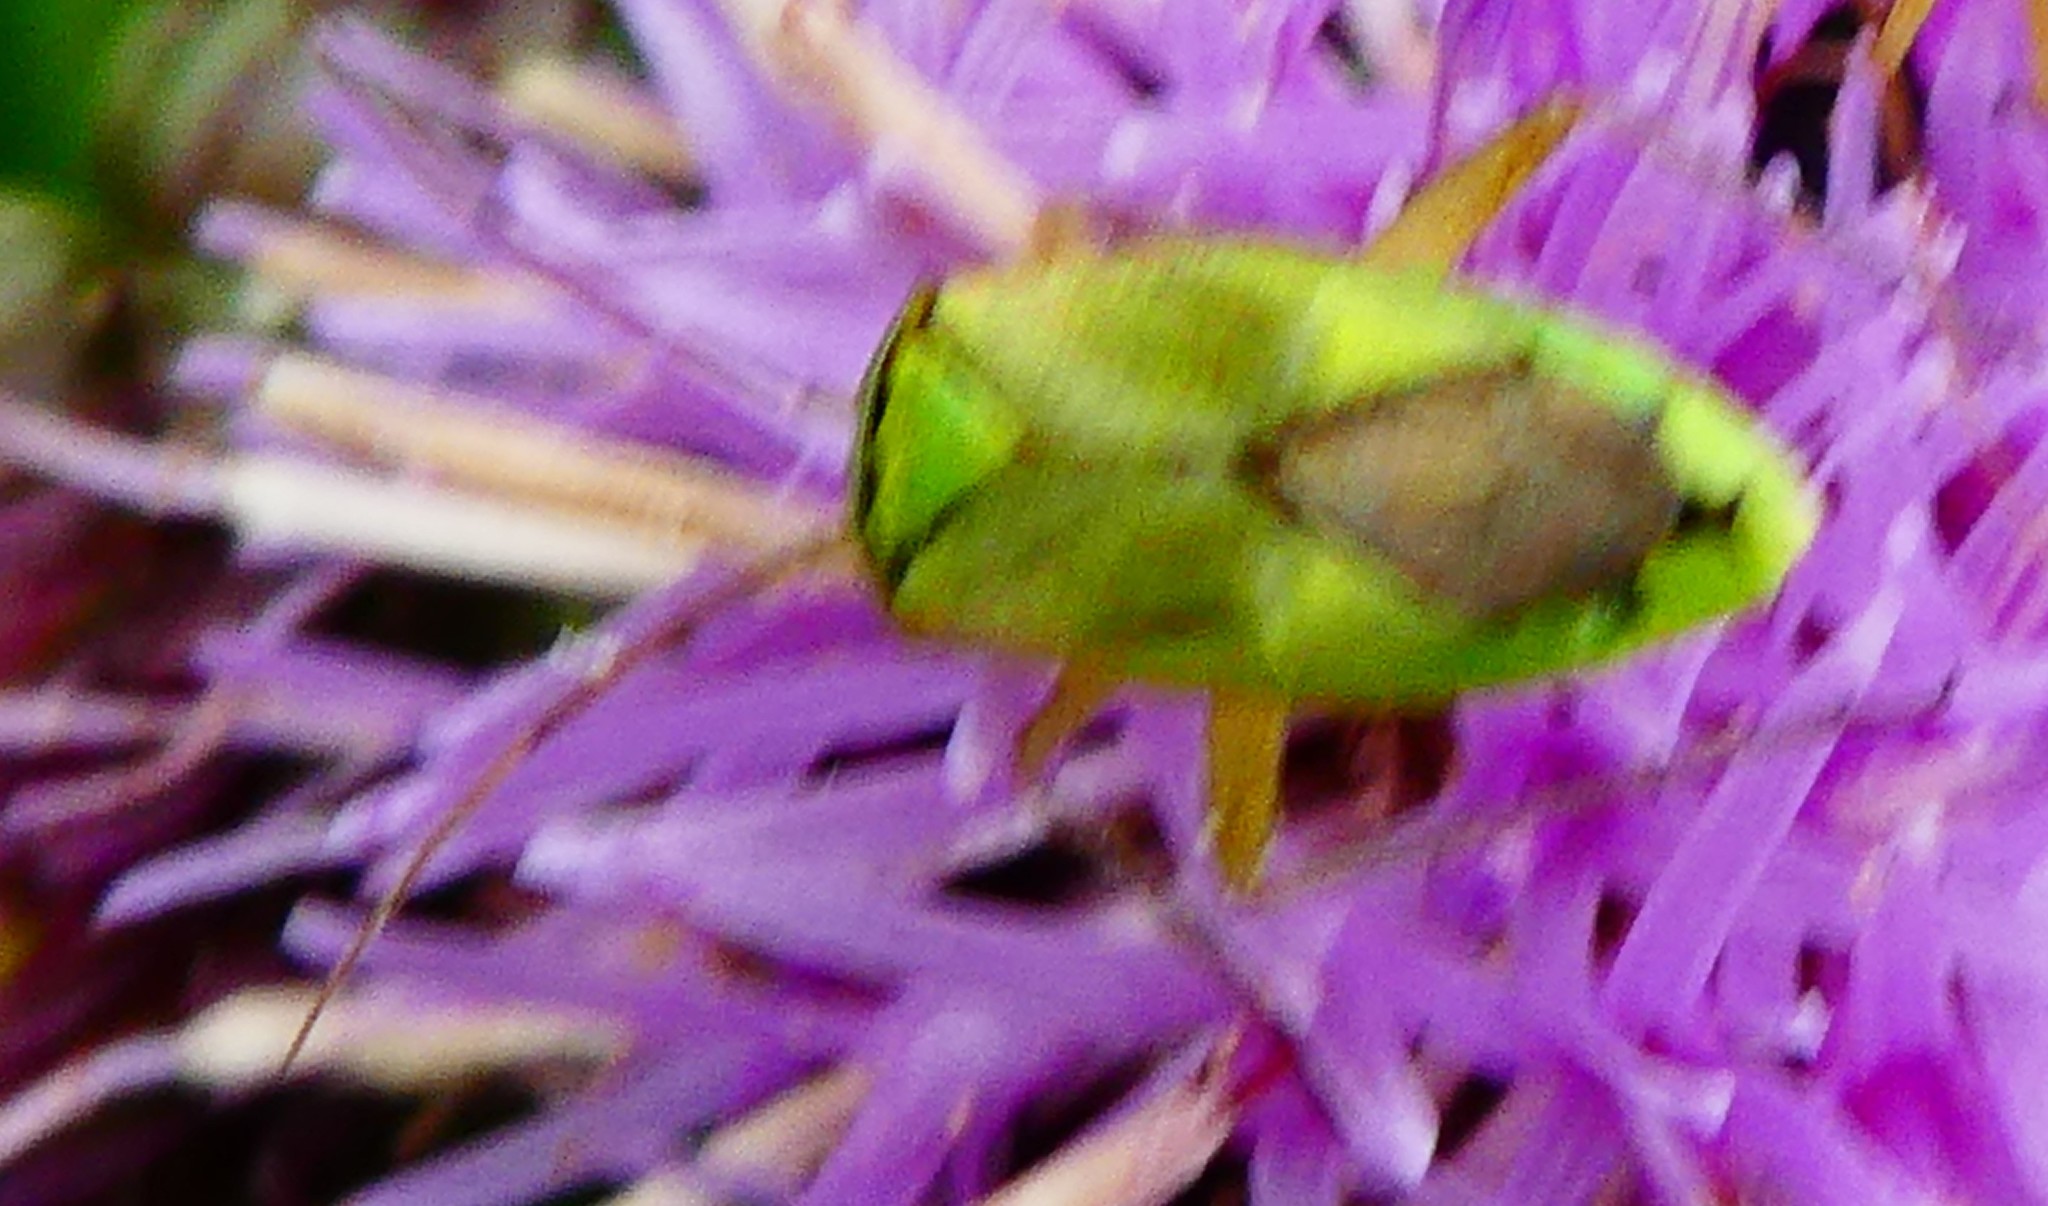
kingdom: Animalia
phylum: Arthropoda
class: Insecta
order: Hemiptera
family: Miridae
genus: Closterotomus
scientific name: Closterotomus norvegicus
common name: Plant bug
